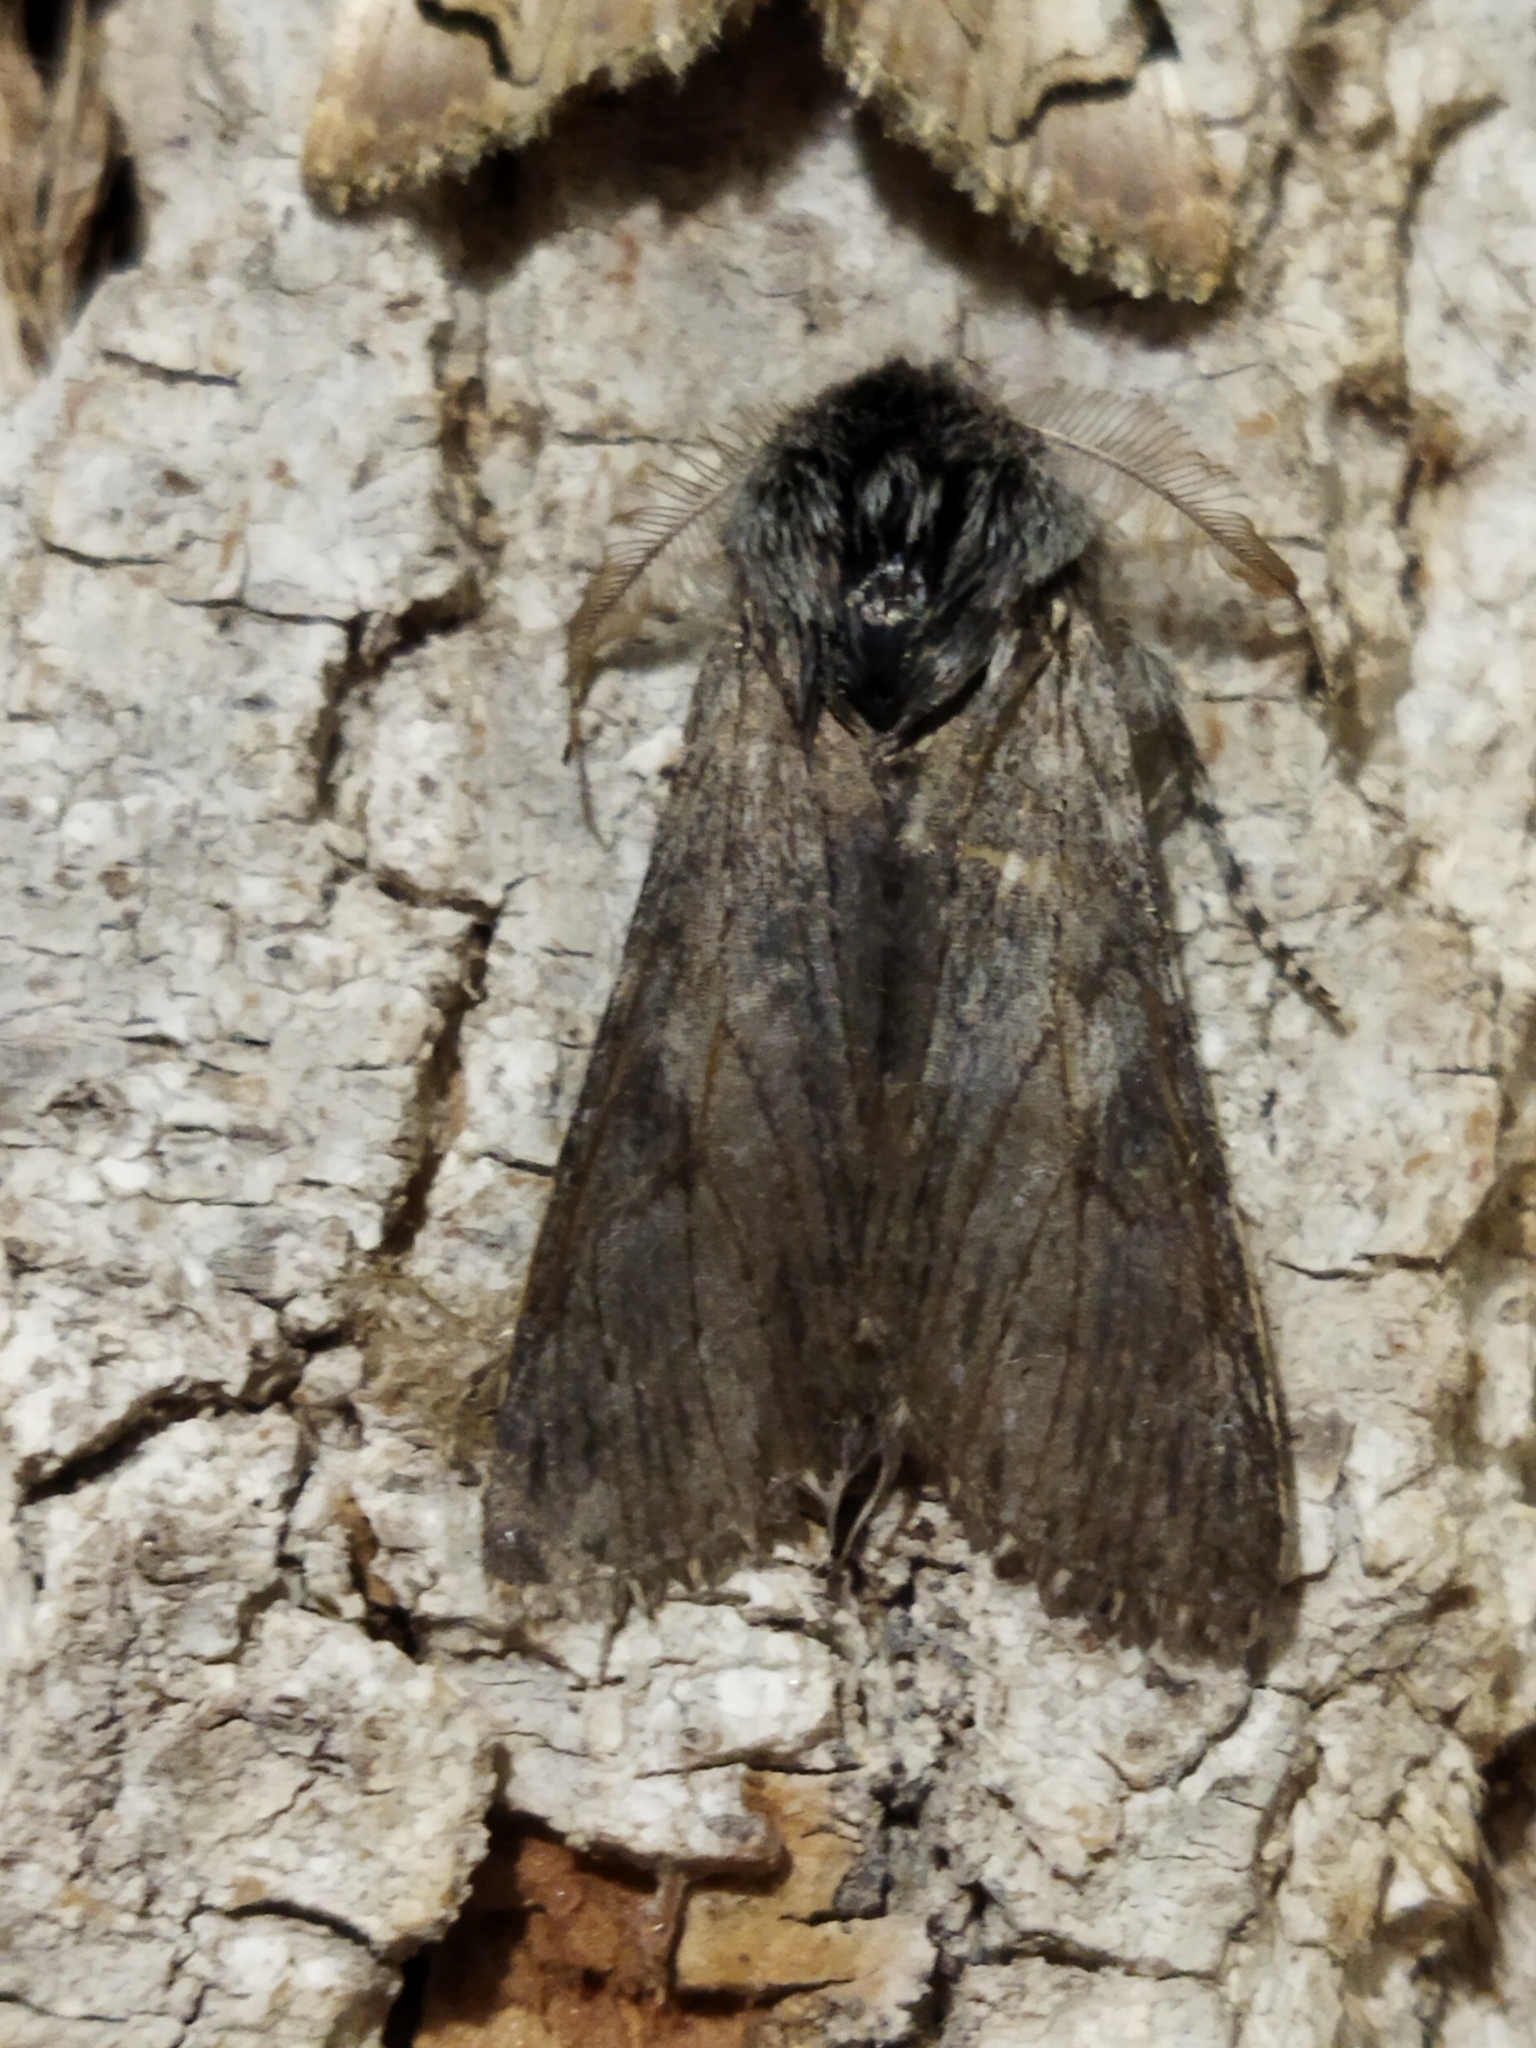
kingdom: Animalia
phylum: Arthropoda
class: Insecta
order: Lepidoptera
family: Notodontidae
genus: Dicranura
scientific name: Dicranura ulmi
